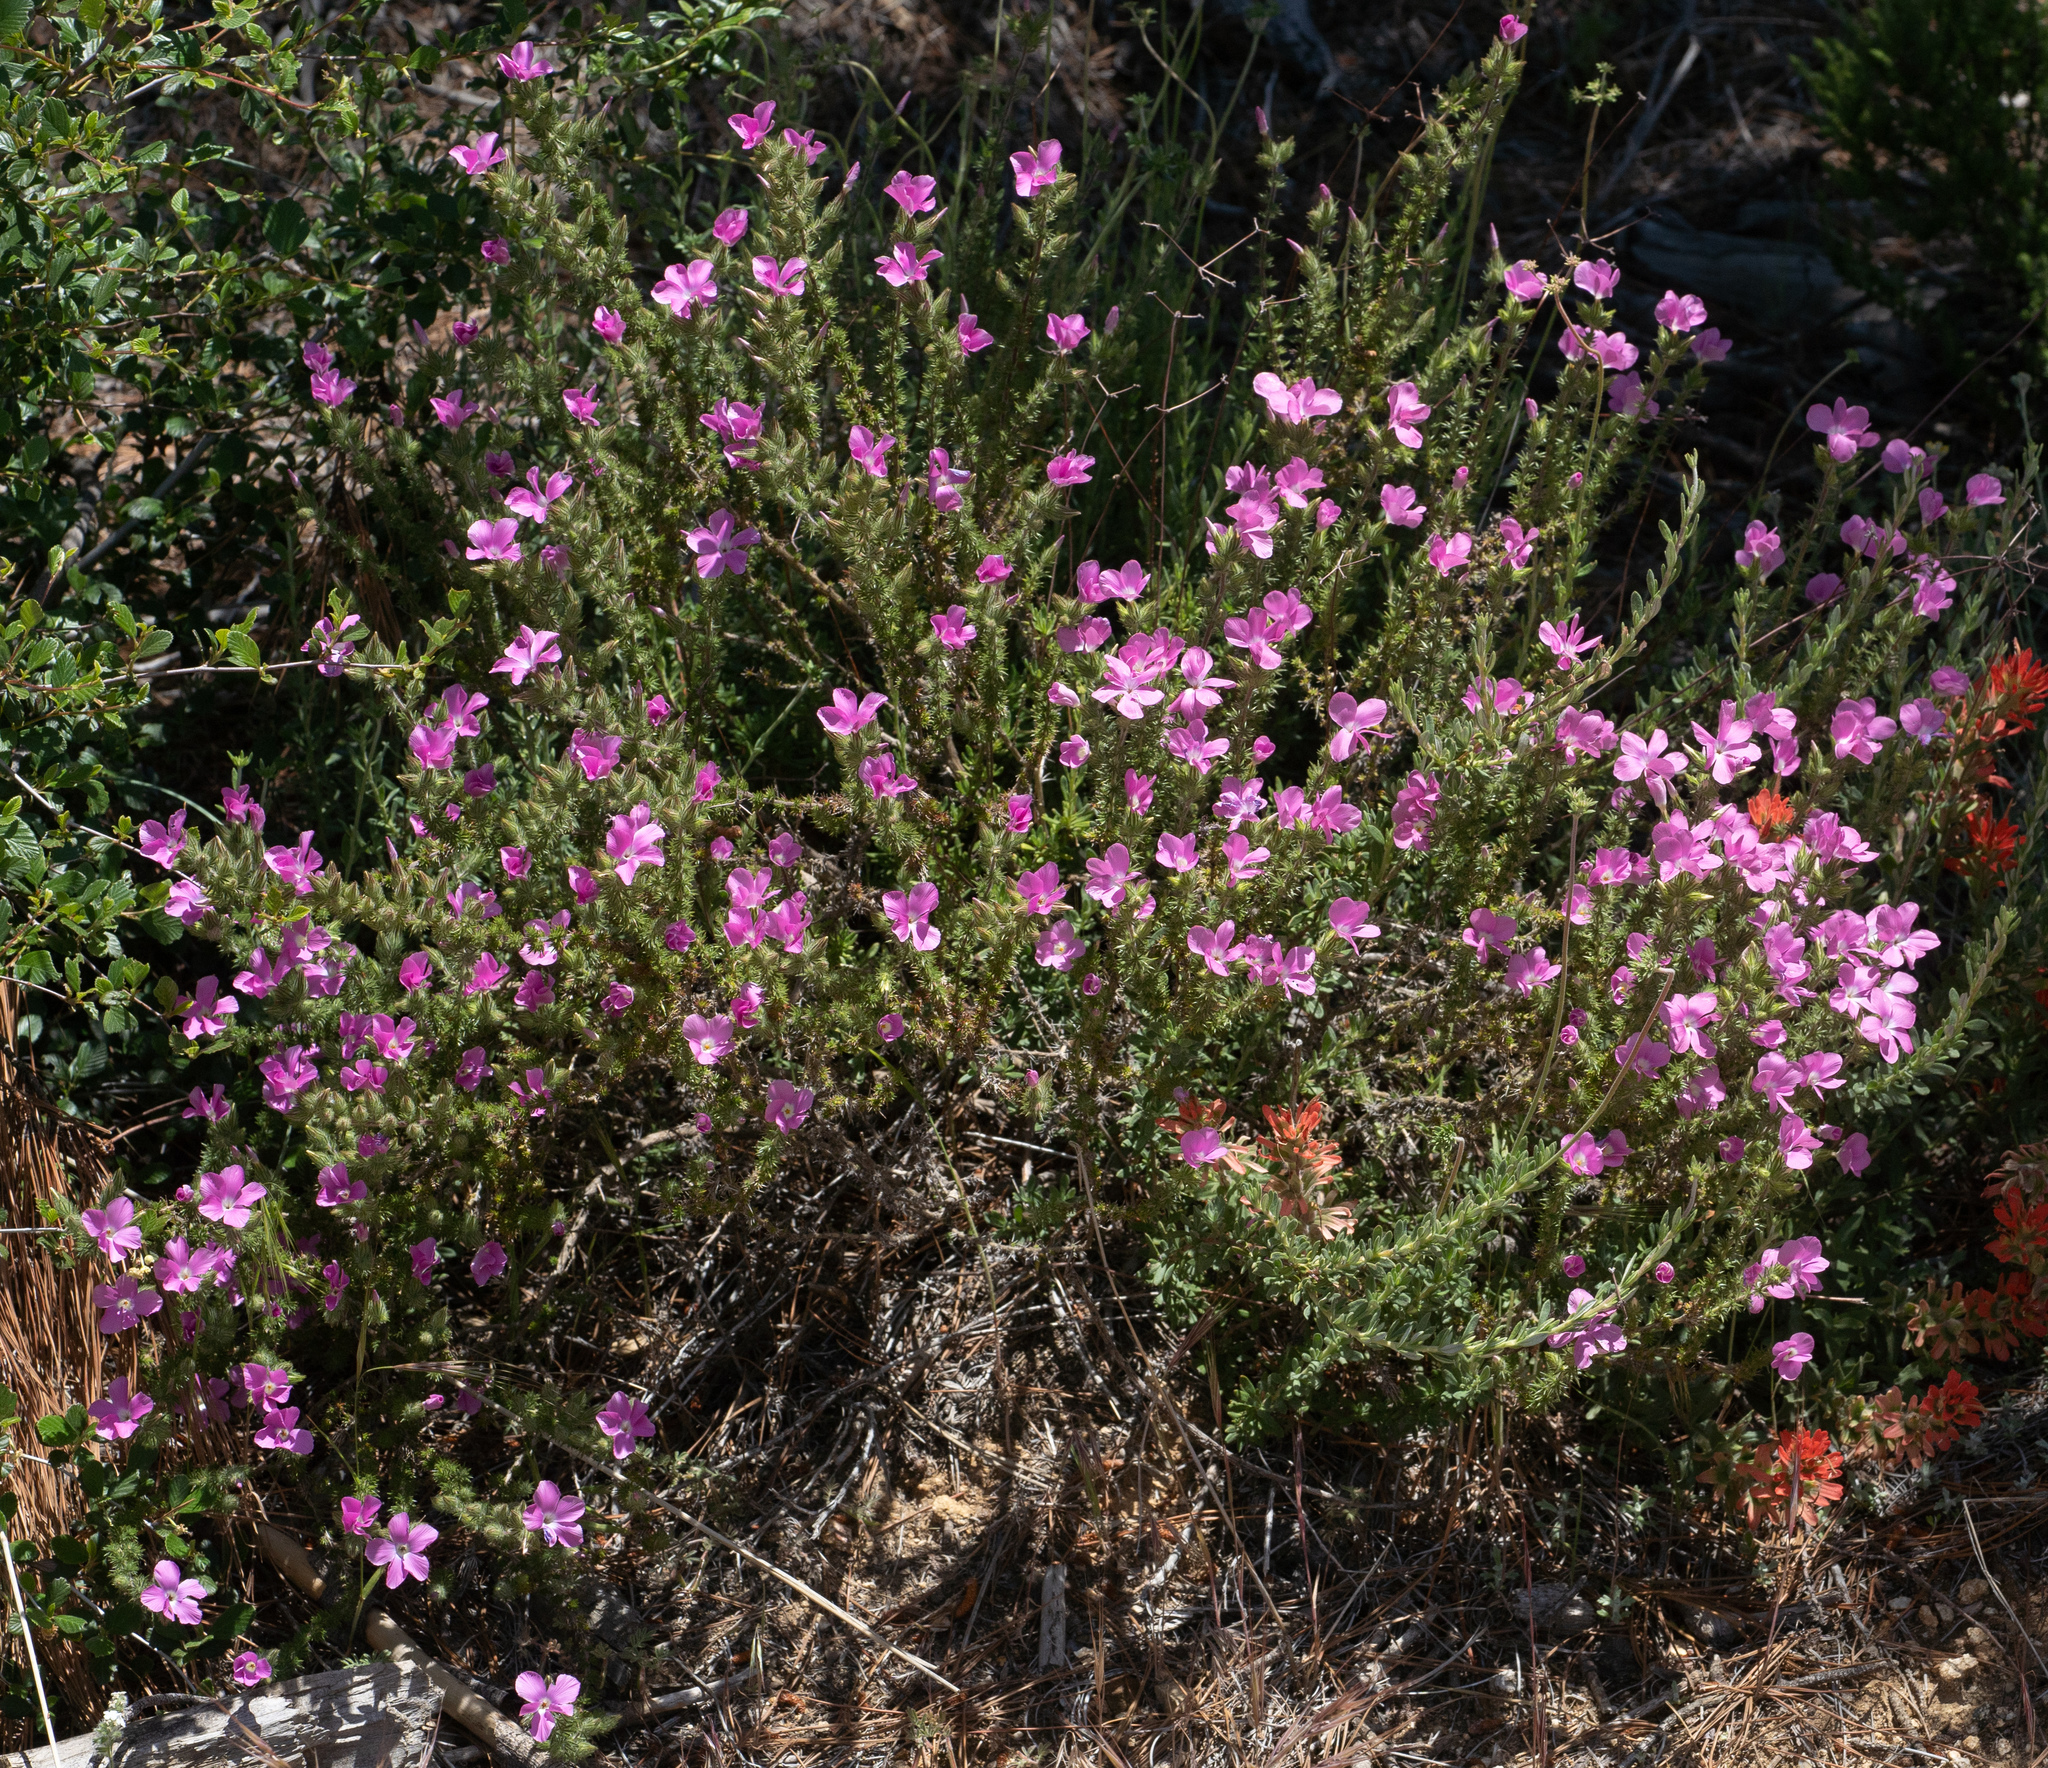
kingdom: Plantae
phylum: Tracheophyta
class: Magnoliopsida
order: Ericales
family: Polemoniaceae
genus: Linanthus
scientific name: Linanthus californicus
